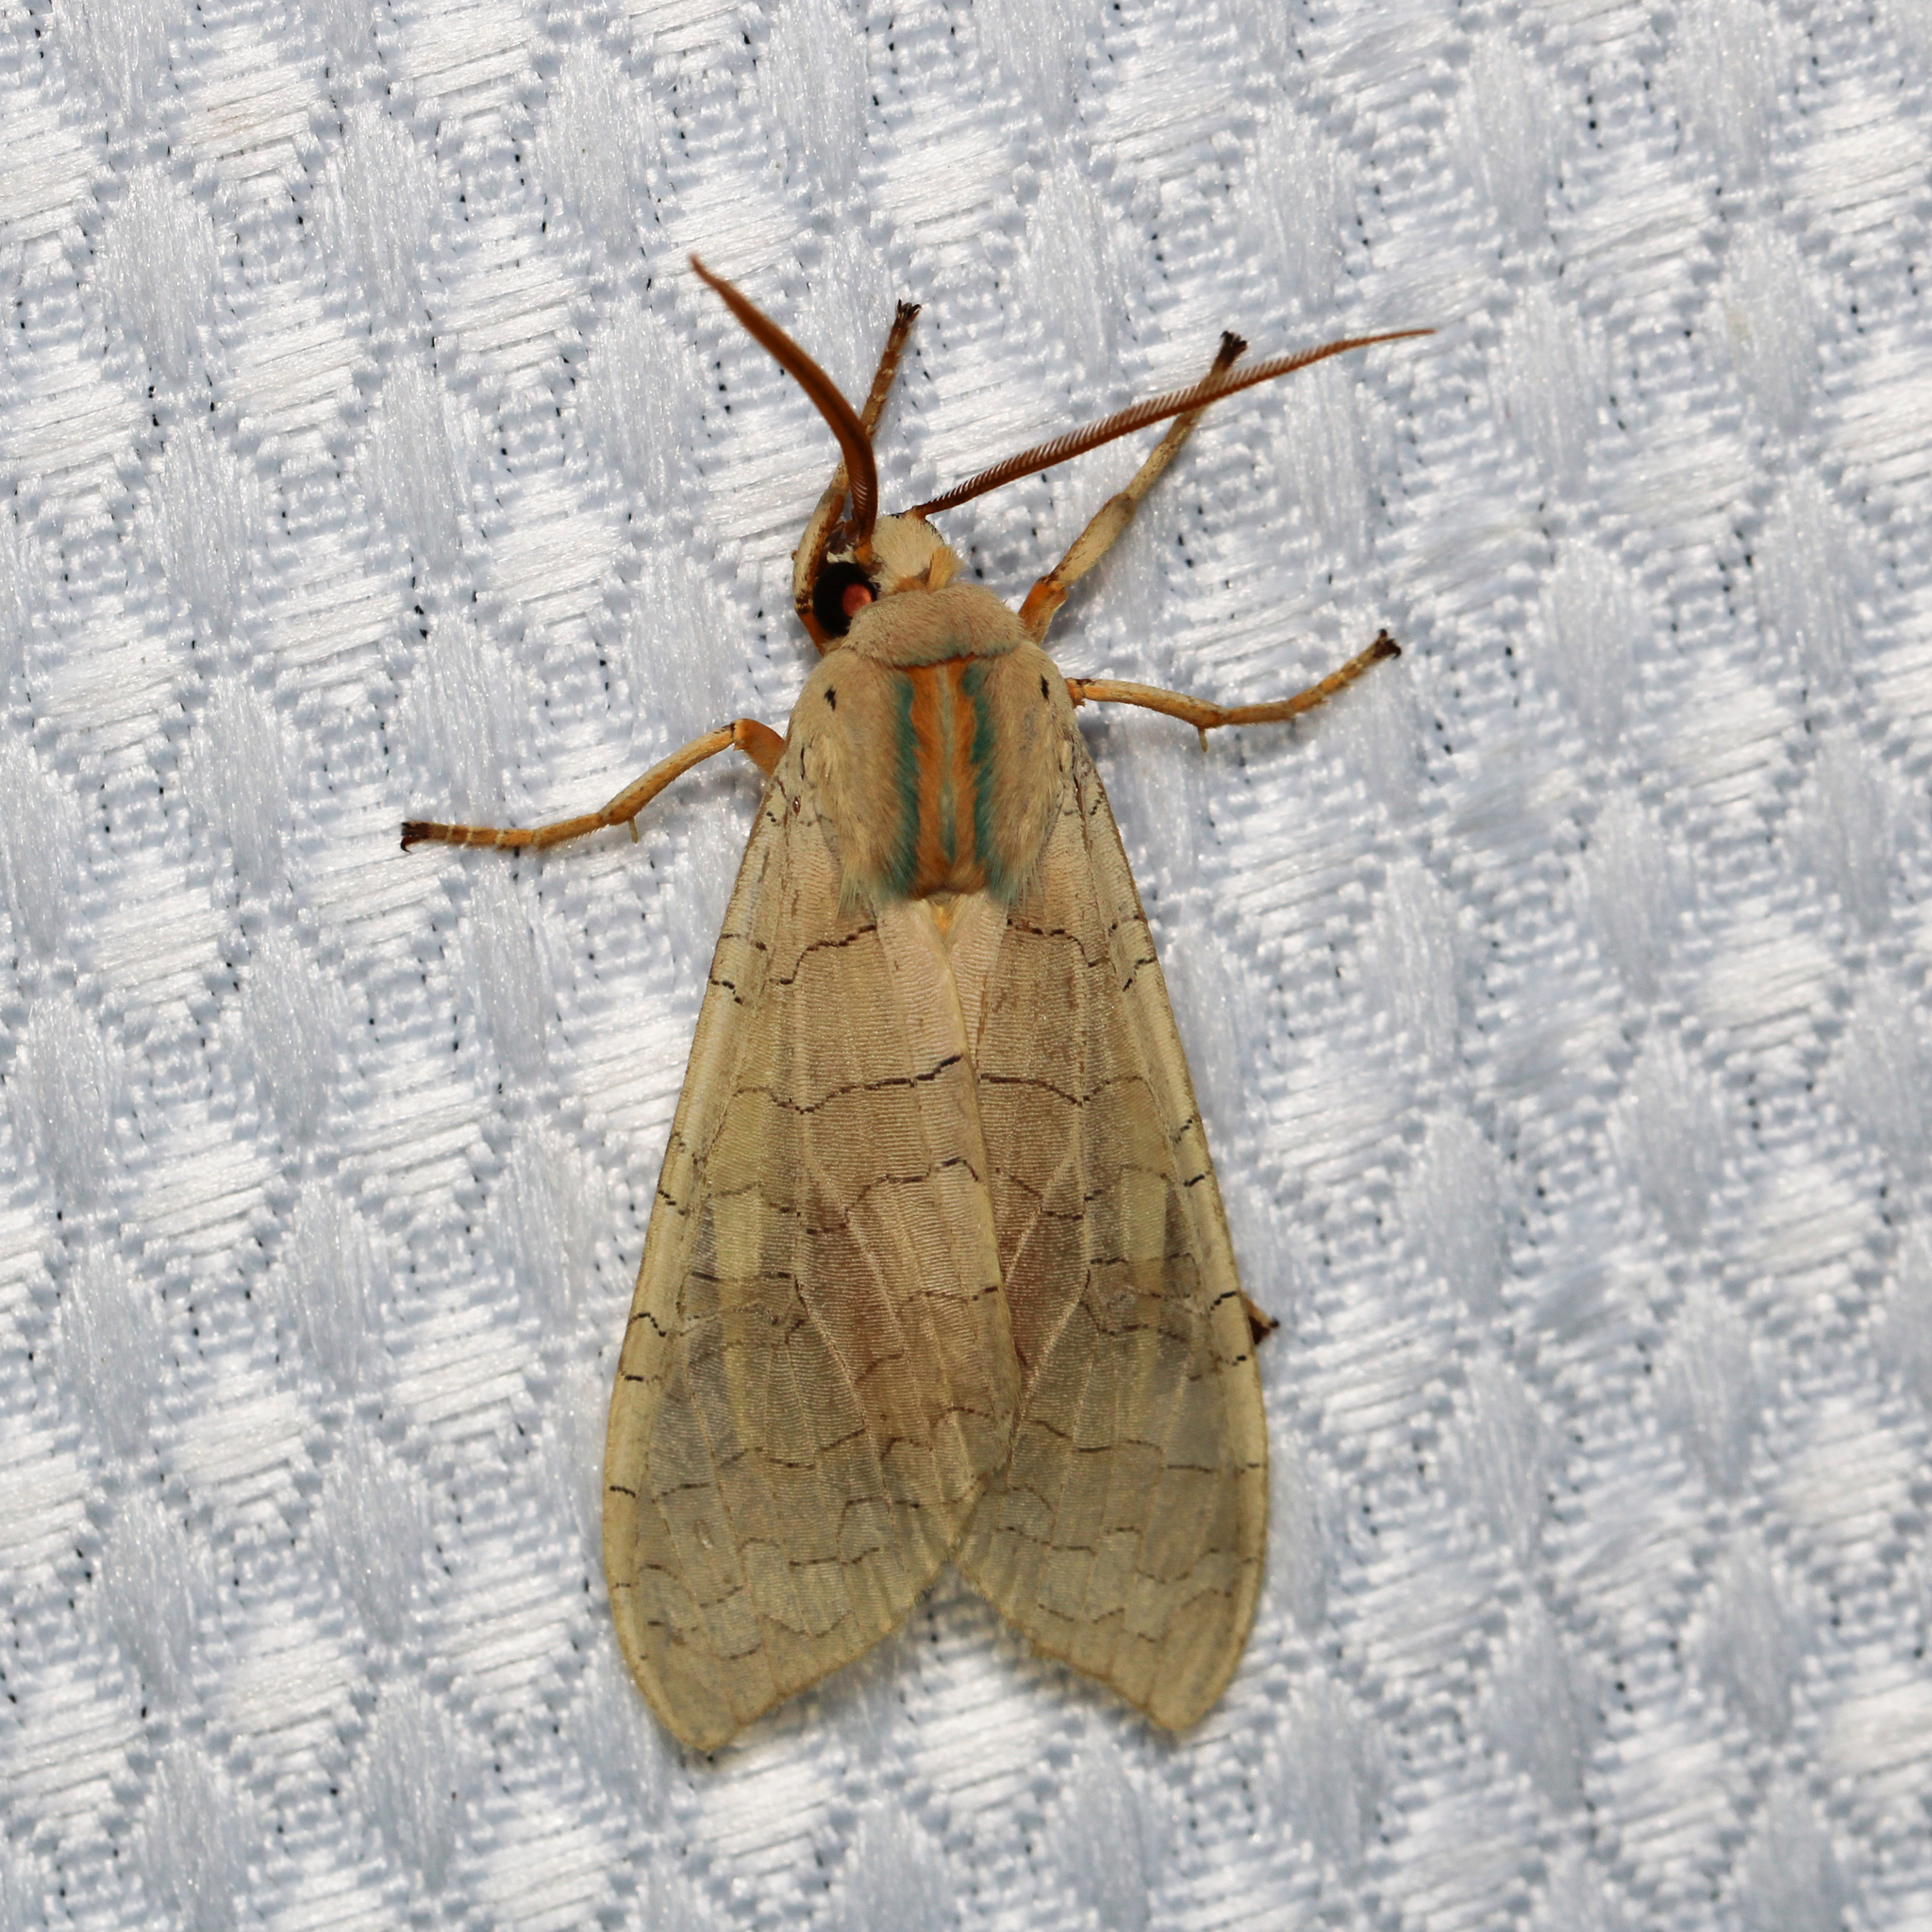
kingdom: Animalia
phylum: Arthropoda
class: Insecta
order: Lepidoptera
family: Erebidae
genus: Halysidota
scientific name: Halysidota
